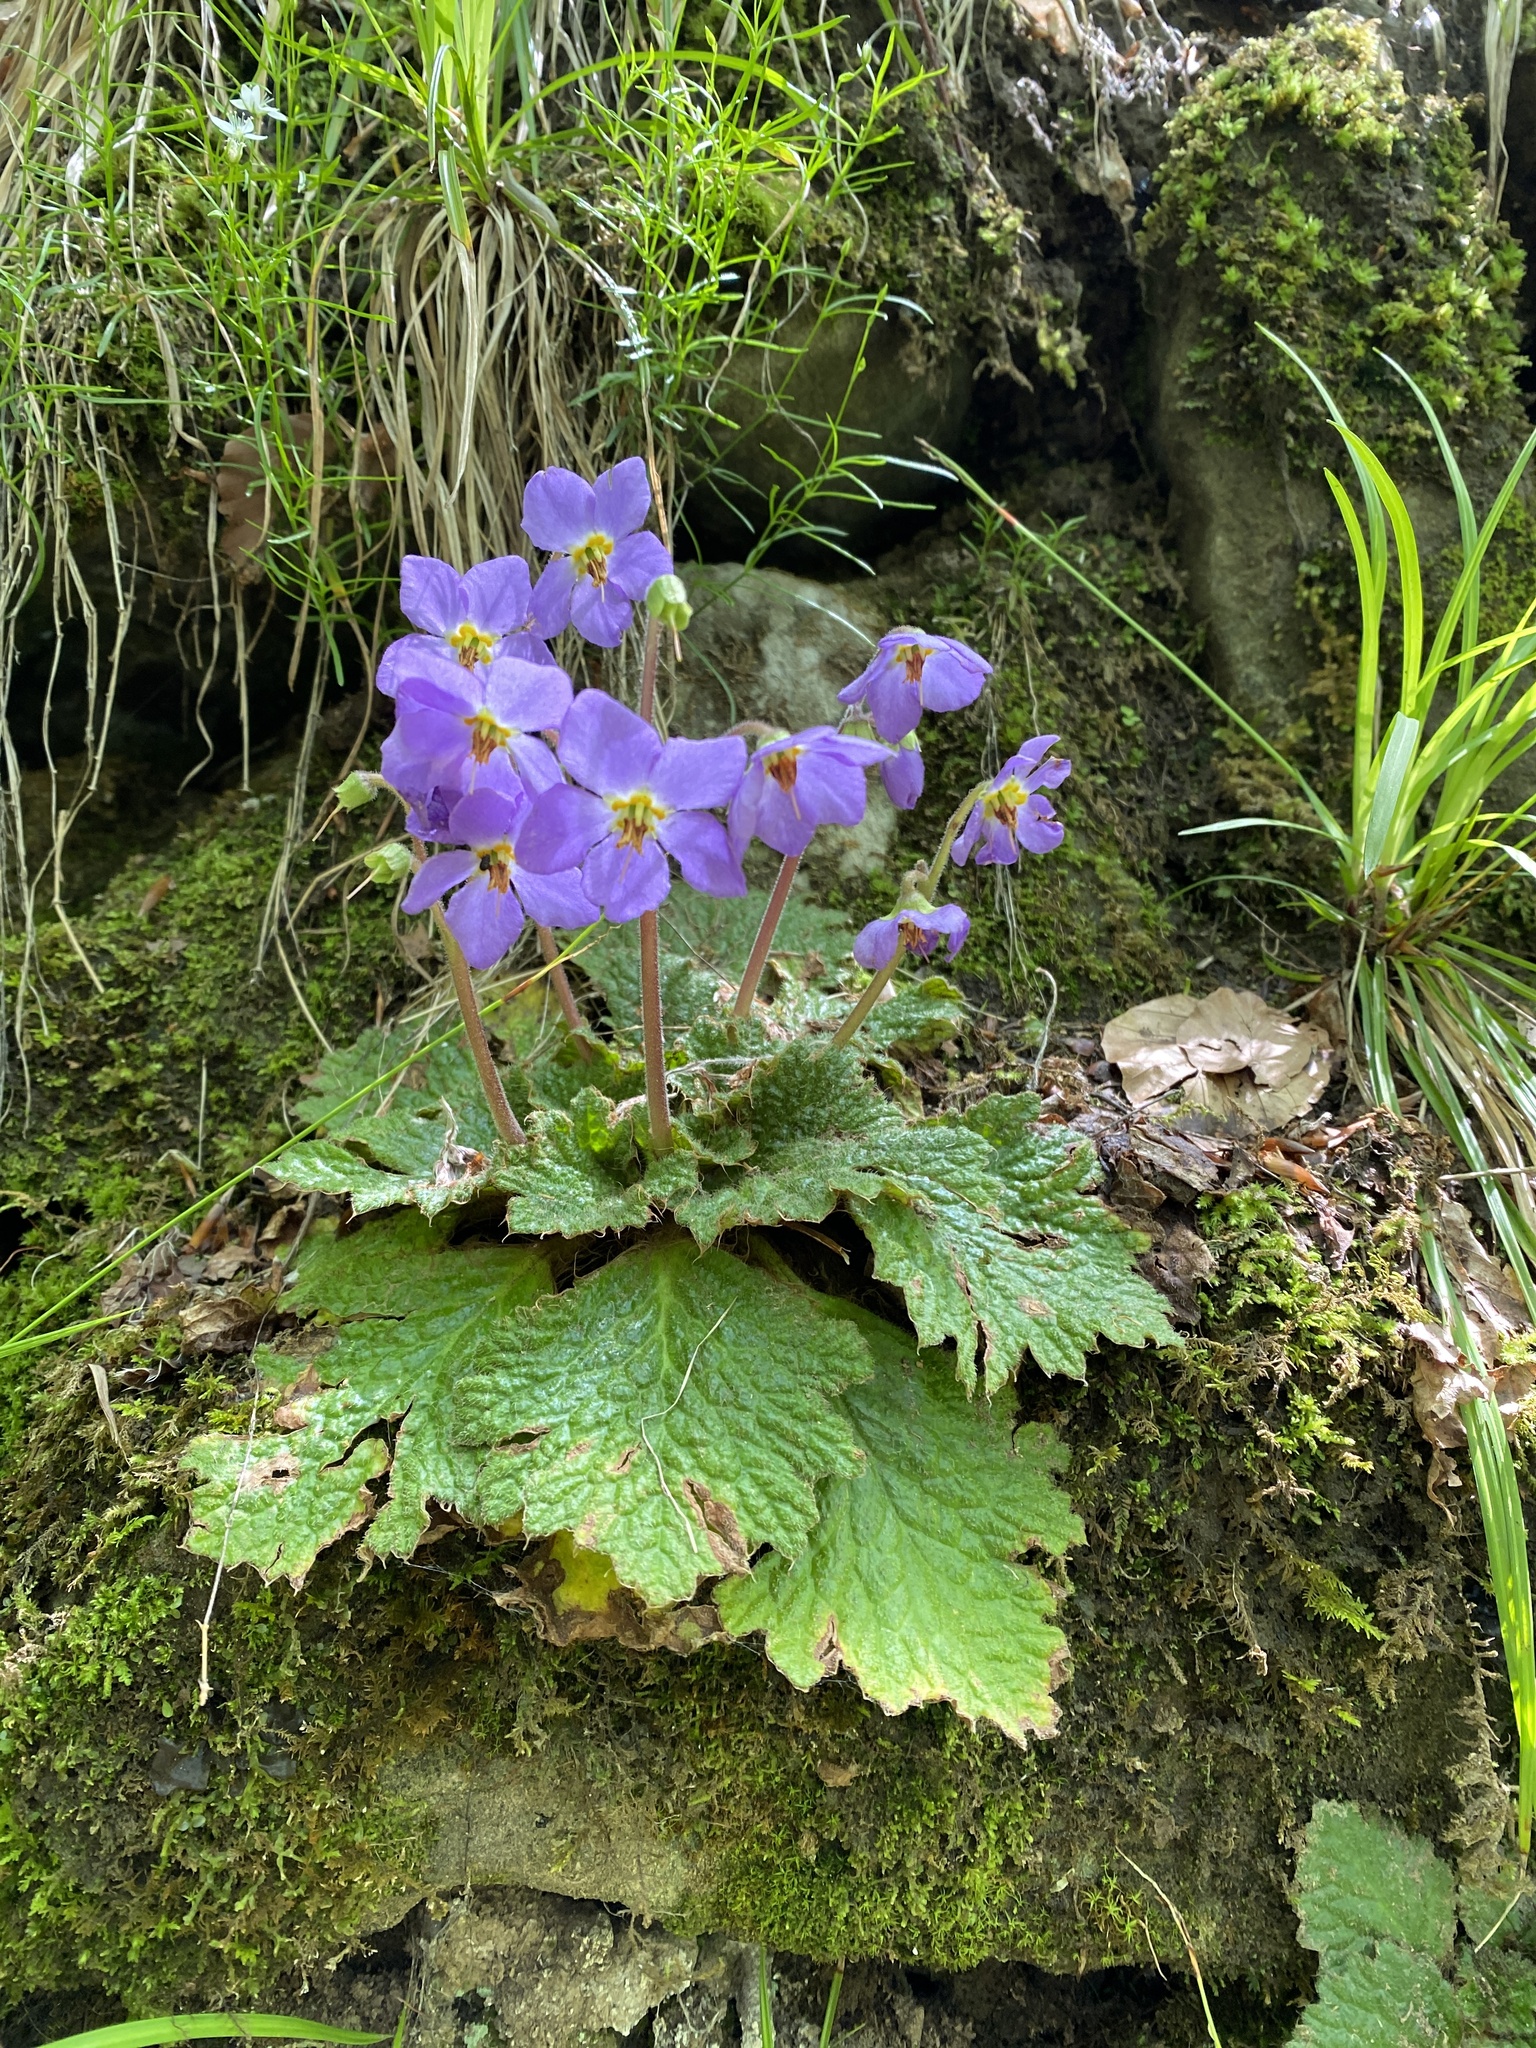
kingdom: Plantae
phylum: Tracheophyta
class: Magnoliopsida
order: Lamiales
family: Gesneriaceae
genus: Ramonda
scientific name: Ramonda myconi
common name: Pyrenean-violet
